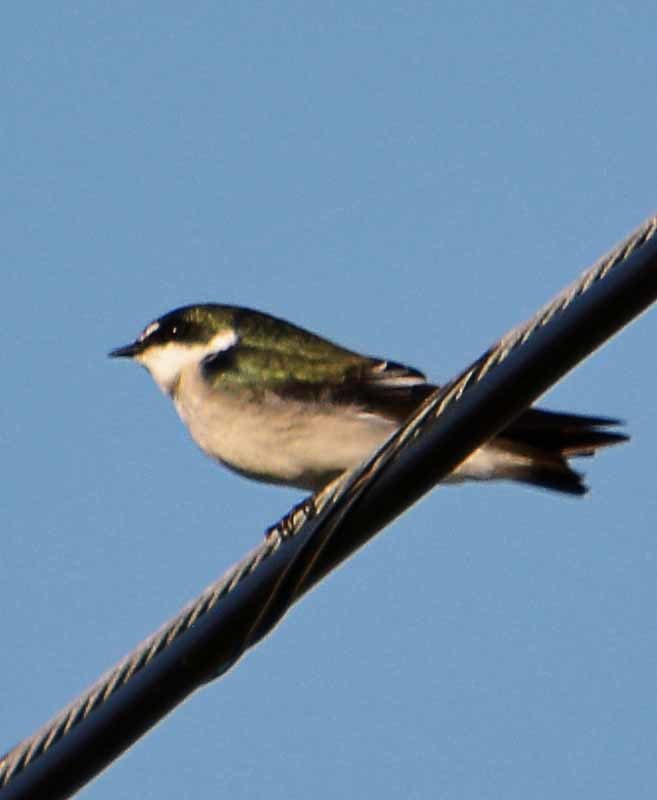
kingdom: Animalia
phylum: Chordata
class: Aves
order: Passeriformes
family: Hirundinidae
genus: Tachycineta
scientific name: Tachycineta albilinea
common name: Mangrove swallow
